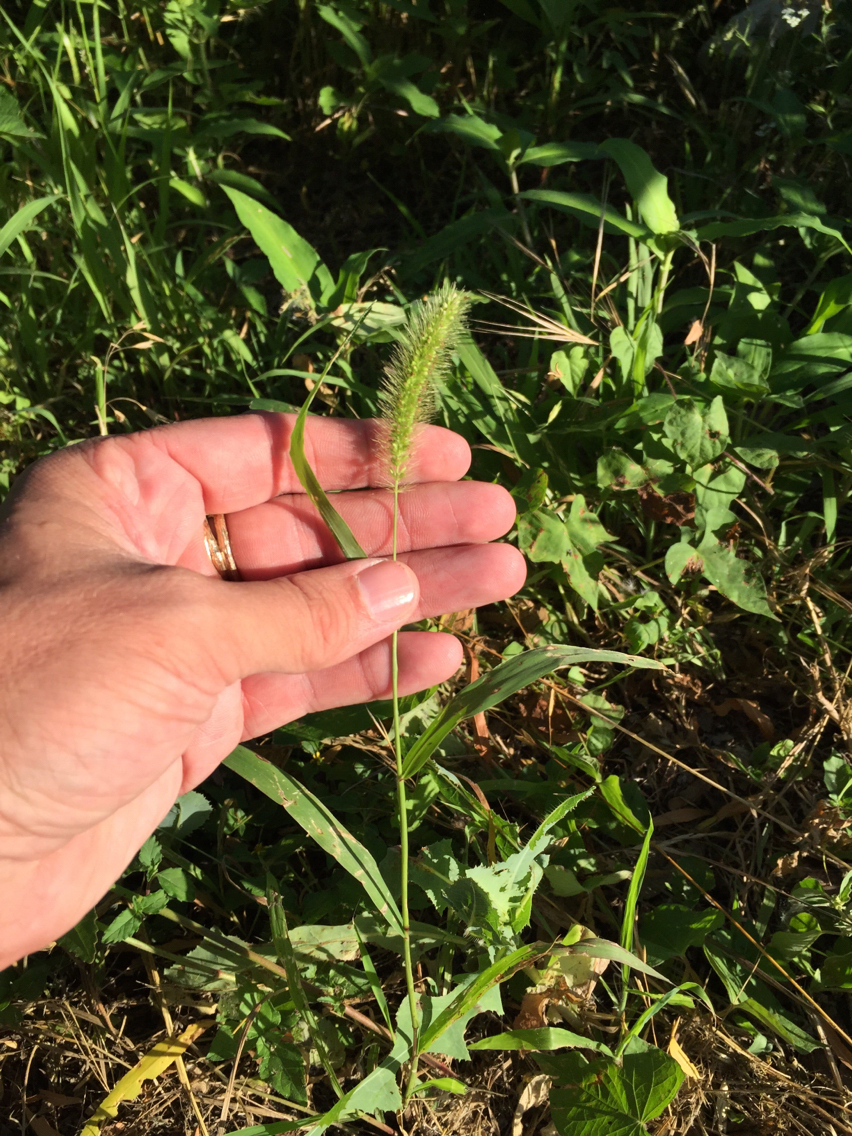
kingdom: Plantae
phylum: Tracheophyta
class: Liliopsida
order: Poales
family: Poaceae
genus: Setaria
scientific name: Setaria viridis
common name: Green bristlegrass
